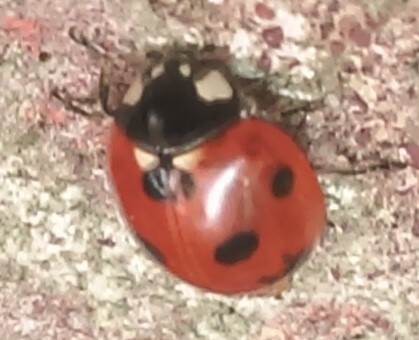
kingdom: Animalia
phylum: Arthropoda
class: Insecta
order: Coleoptera
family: Coccinellidae
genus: Coccinella
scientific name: Coccinella septempunctata
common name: Sevenspotted lady beetle
